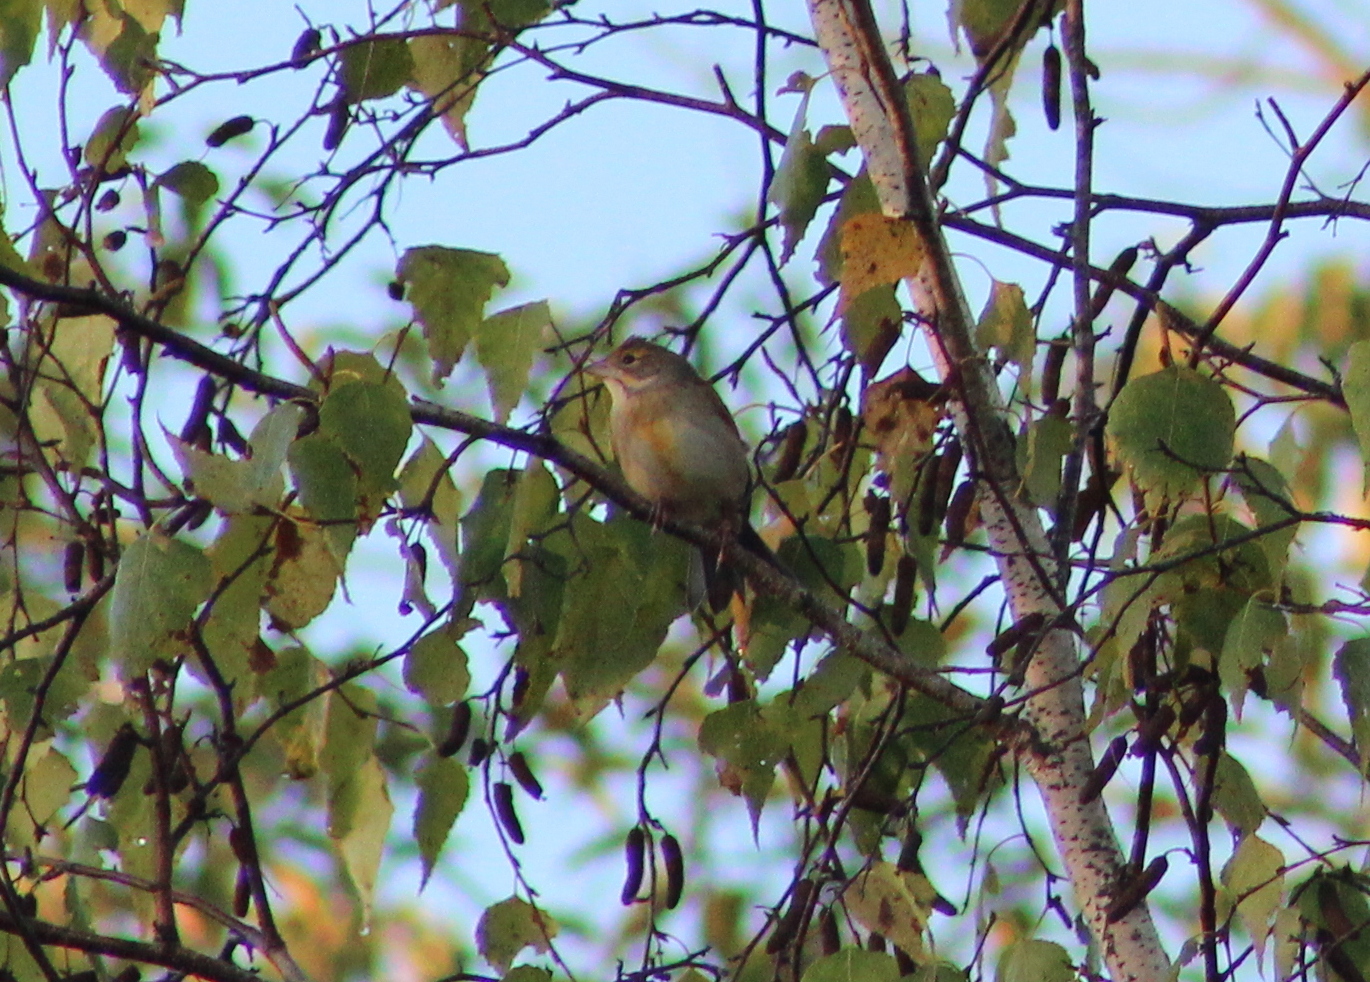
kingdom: Animalia
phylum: Chordata
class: Aves
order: Passeriformes
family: Cardinalidae
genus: Spiza
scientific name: Spiza americana
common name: Dickcissel
